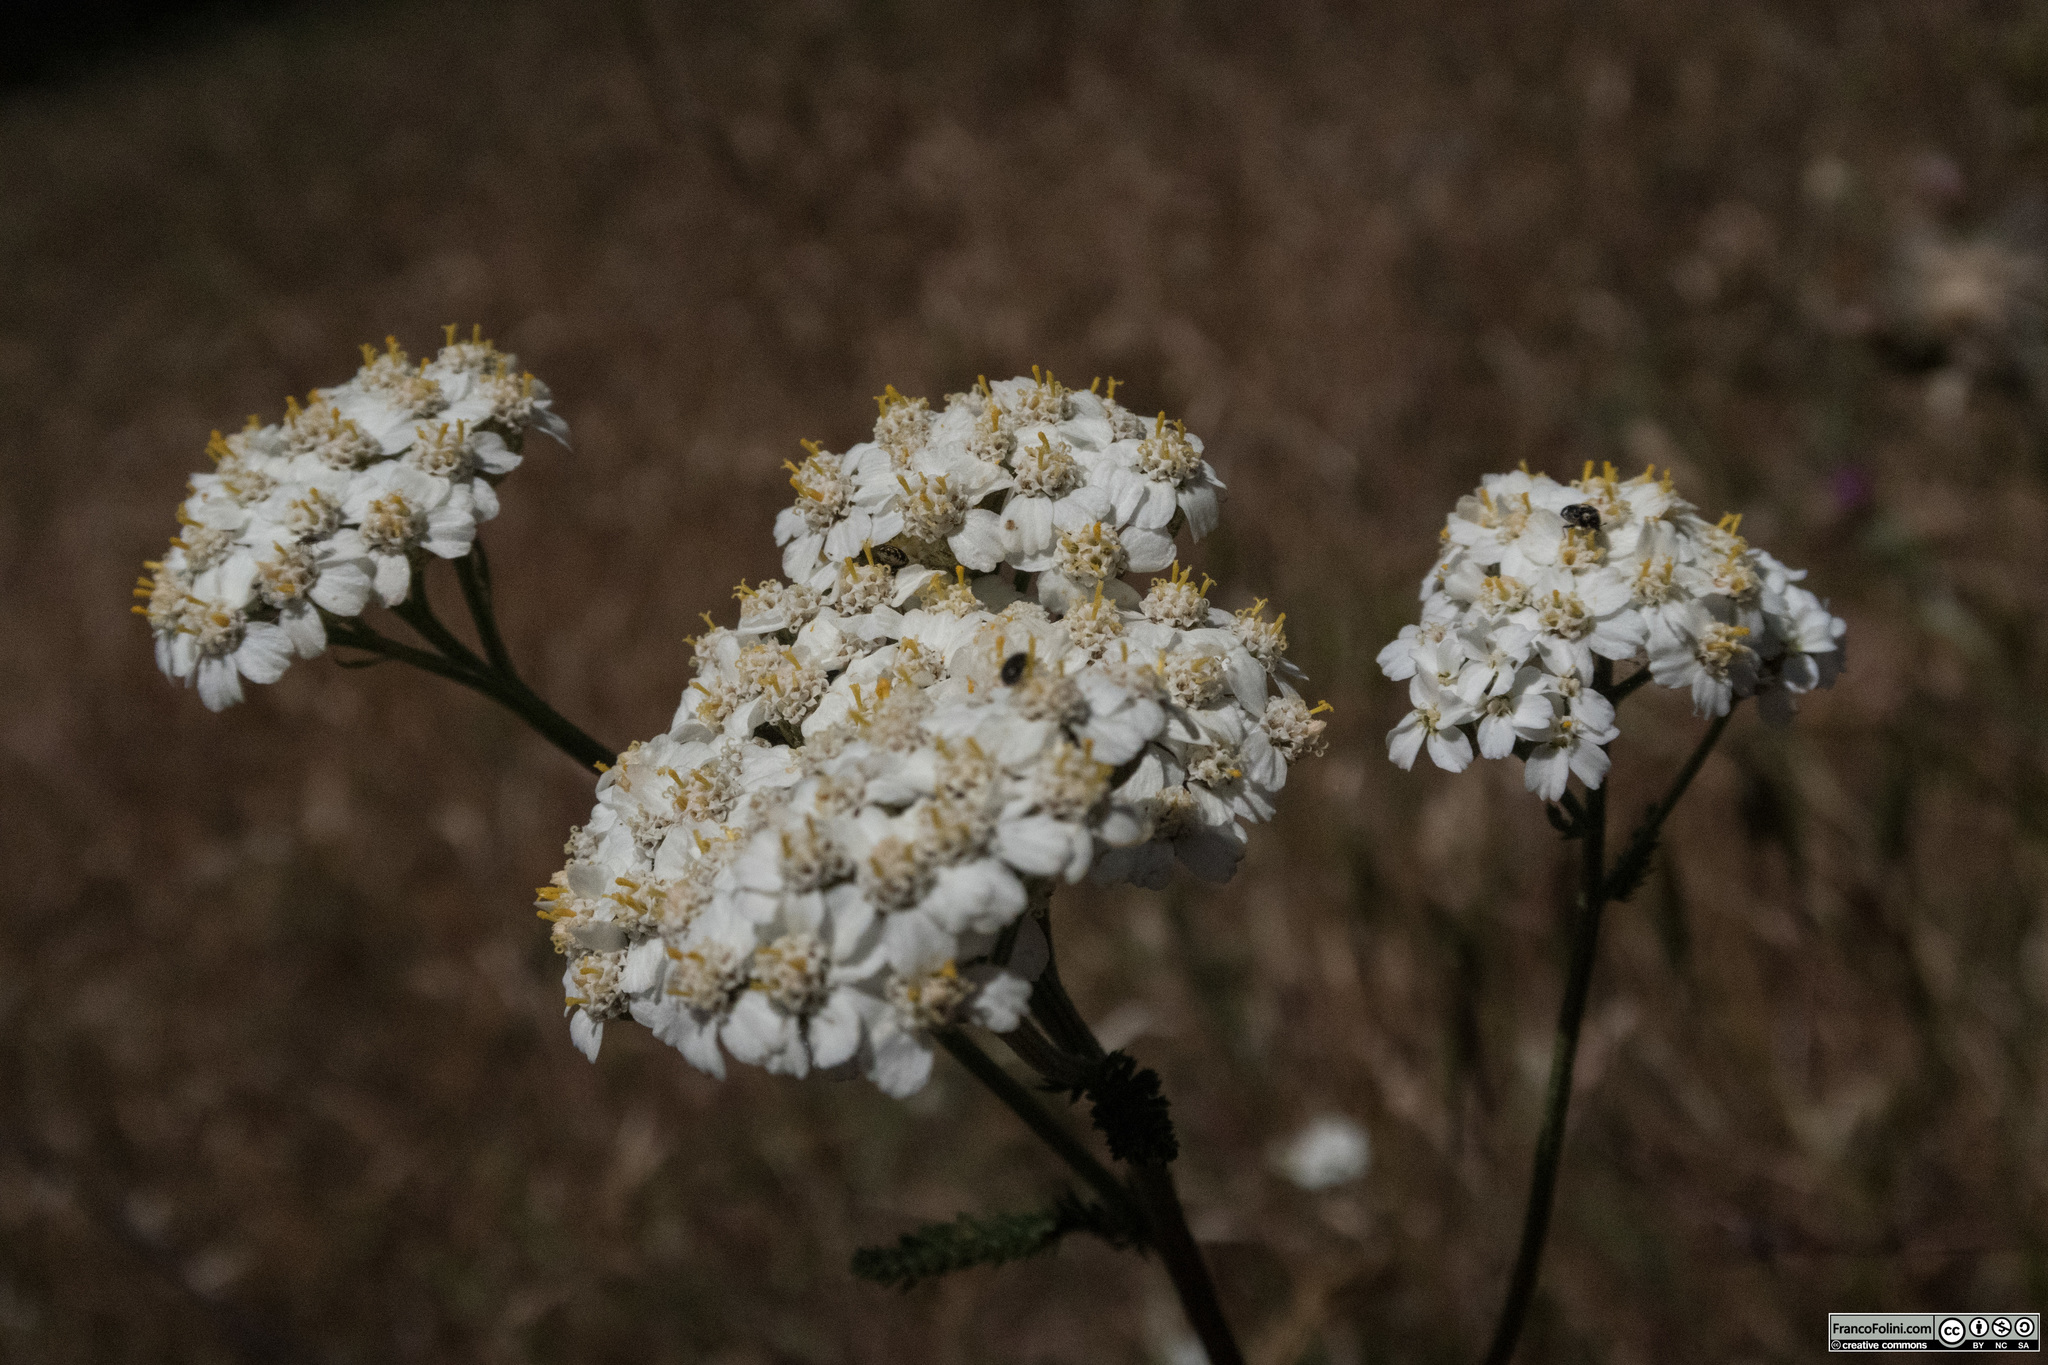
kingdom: Plantae
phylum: Tracheophyta
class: Magnoliopsida
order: Asterales
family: Asteraceae
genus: Achillea
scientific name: Achillea millefolium
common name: Yarrow
